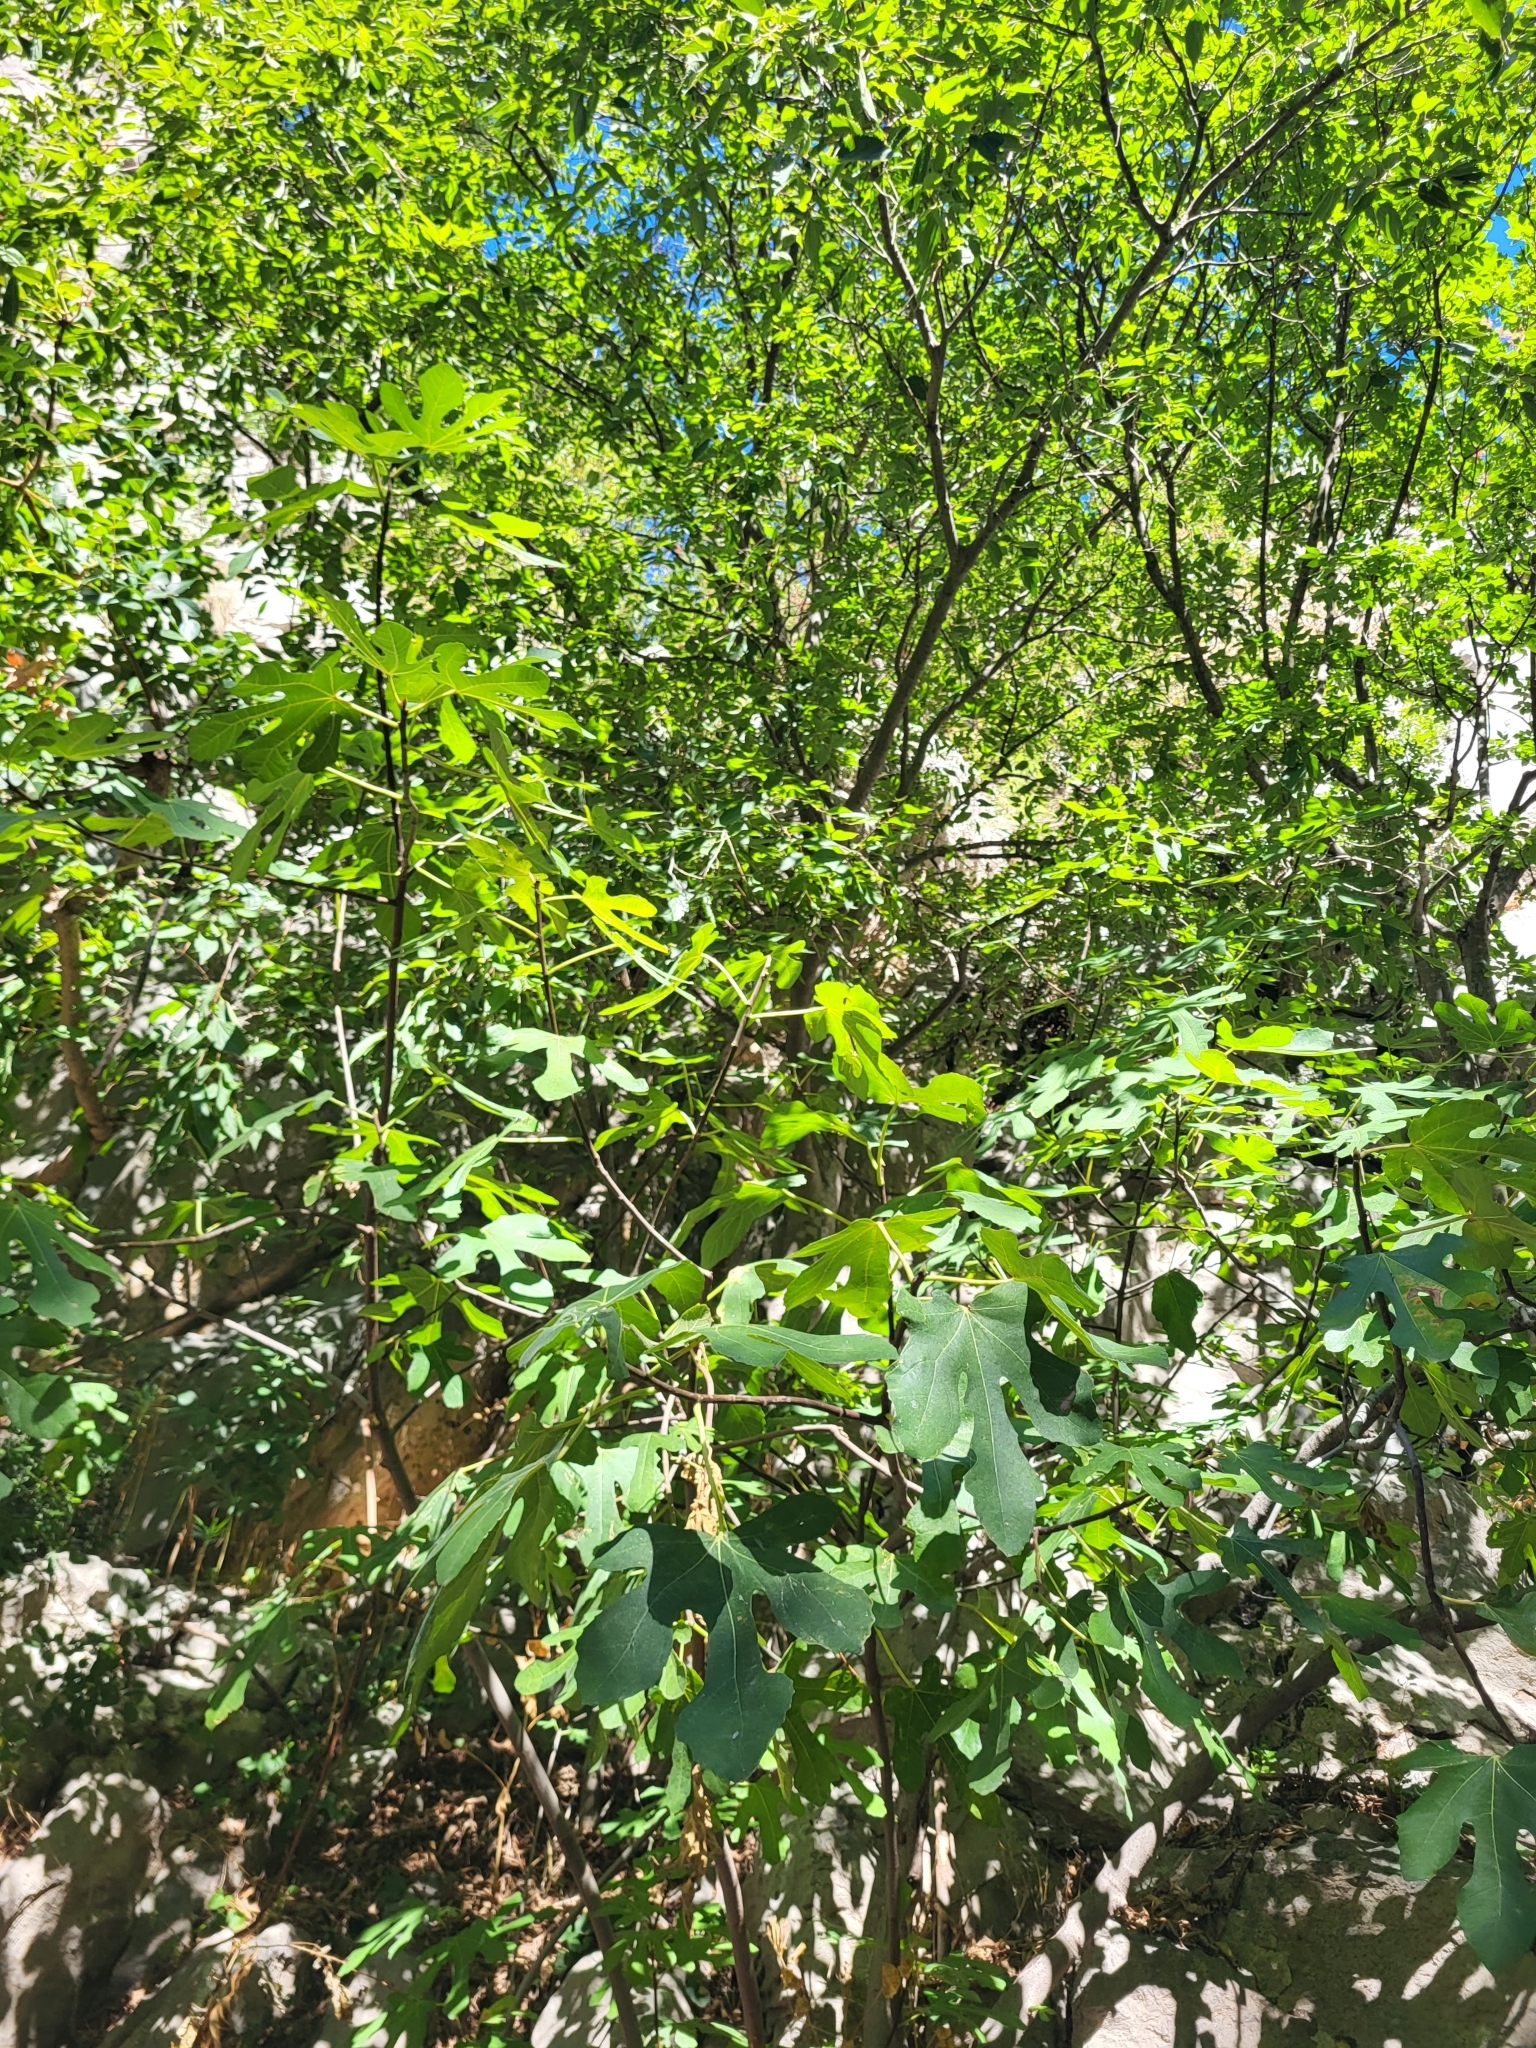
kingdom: Plantae
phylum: Tracheophyta
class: Magnoliopsida
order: Rosales
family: Moraceae
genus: Ficus
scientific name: Ficus carica
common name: Fig
